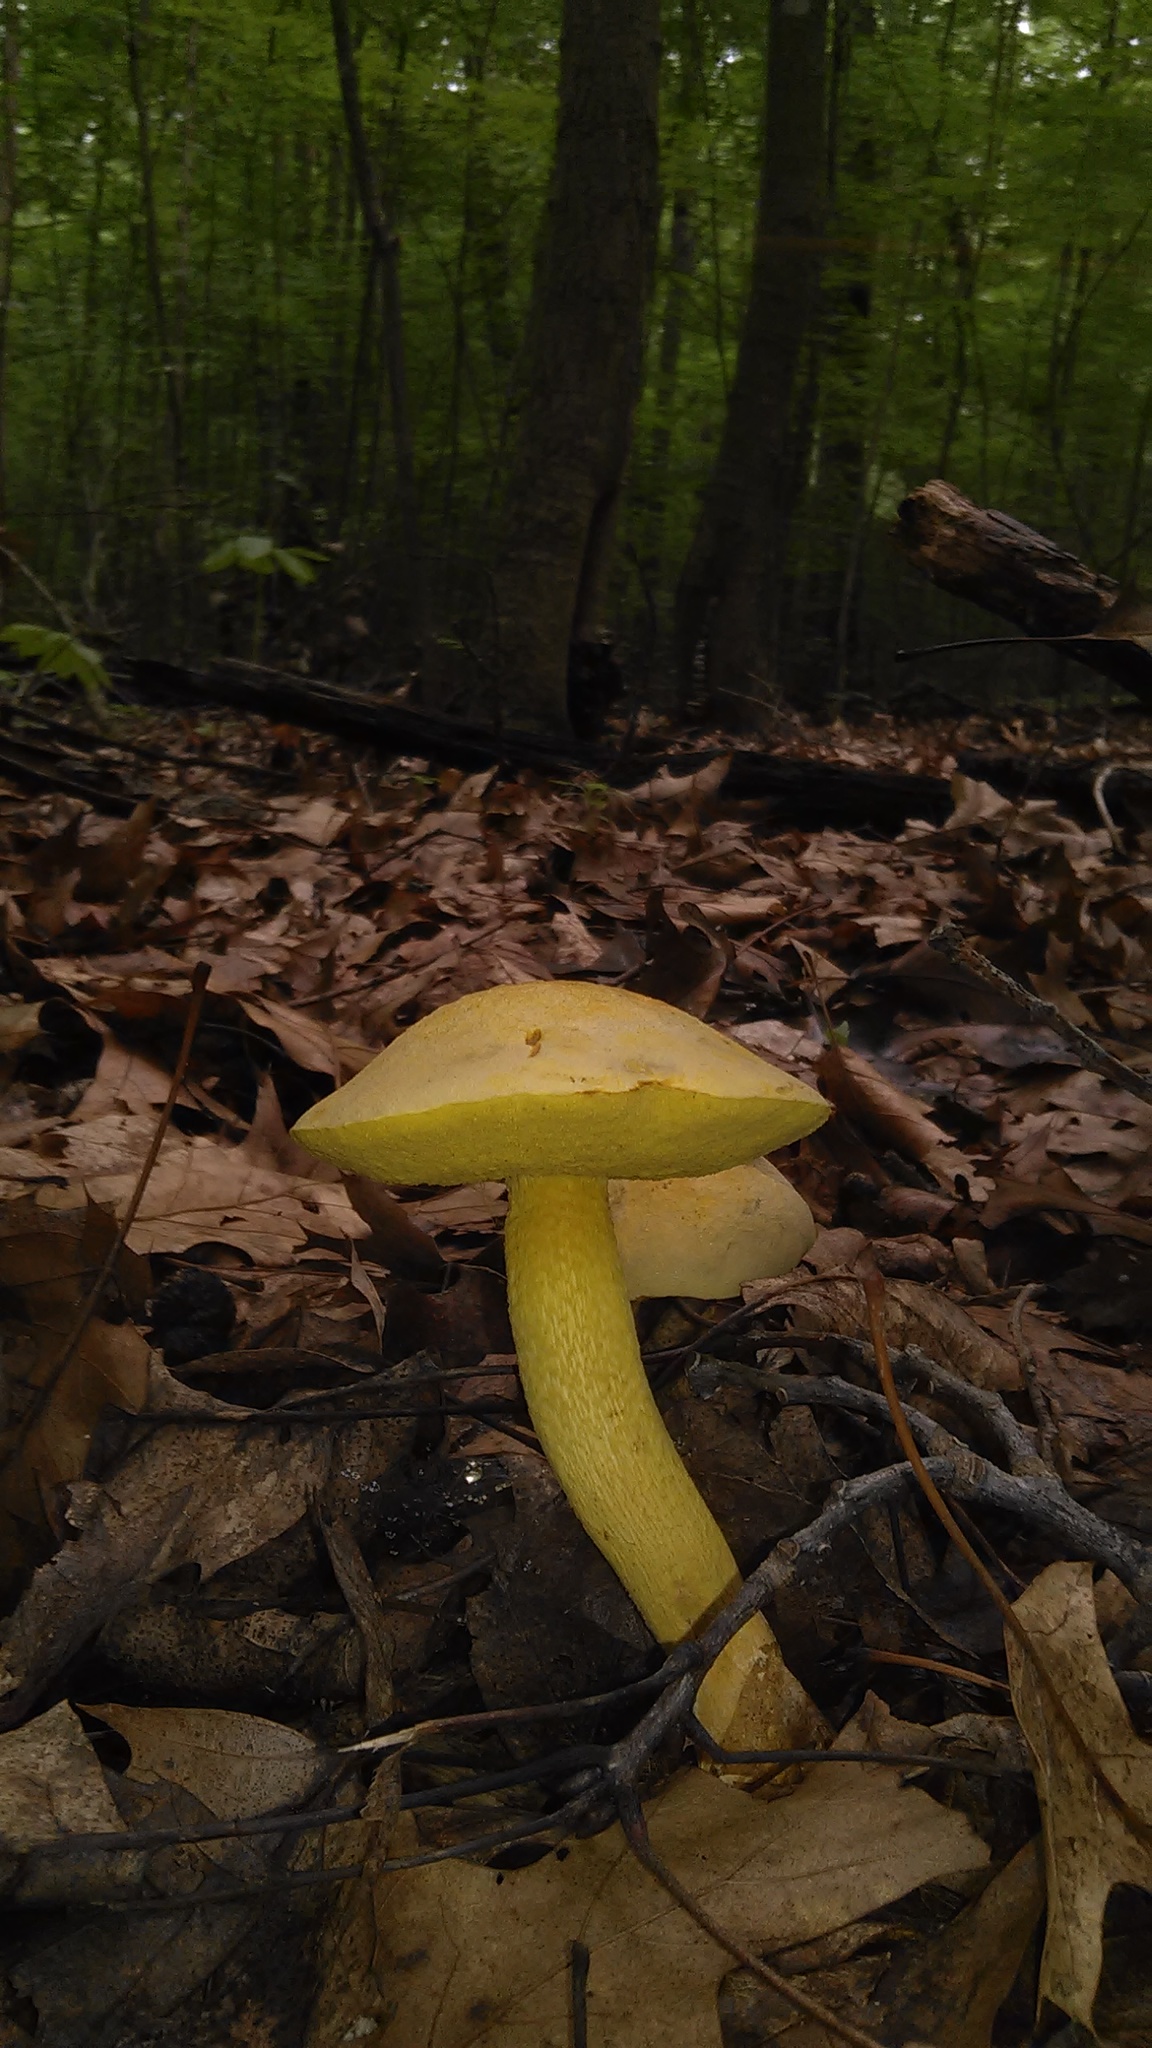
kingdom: Fungi
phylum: Basidiomycota
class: Agaricomycetes
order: Boletales
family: Boletaceae
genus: Retiboletus
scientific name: Retiboletus ornatipes
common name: Ornate-stalked bolete
